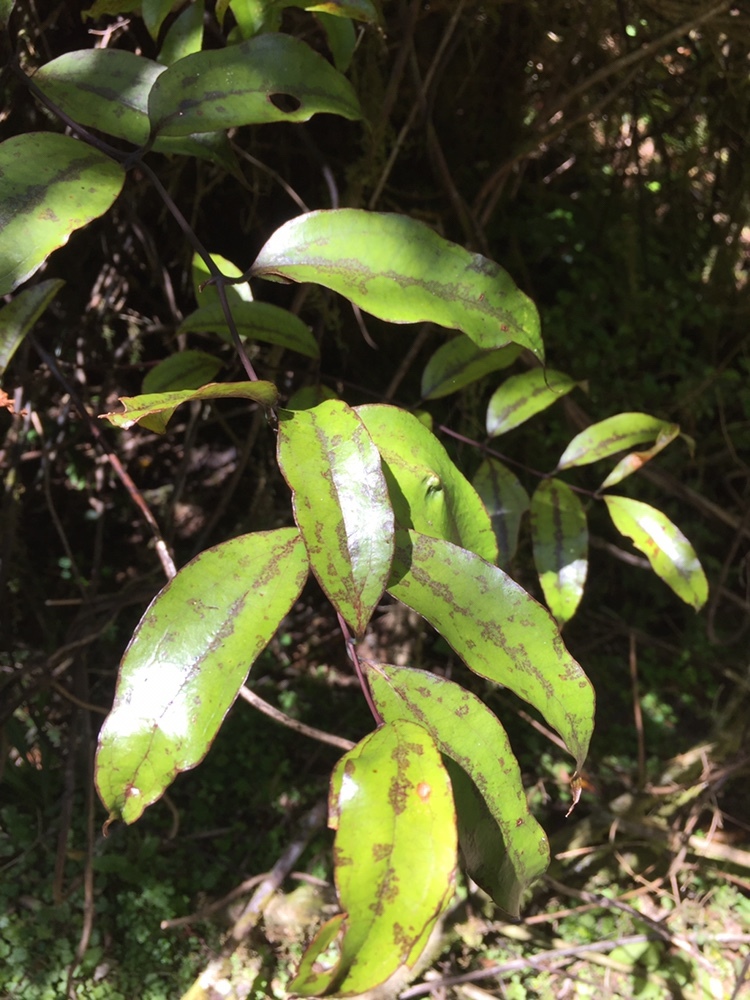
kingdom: Plantae
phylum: Tracheophyta
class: Liliopsida
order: Liliales
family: Ripogonaceae
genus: Ripogonum
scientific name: Ripogonum scandens
